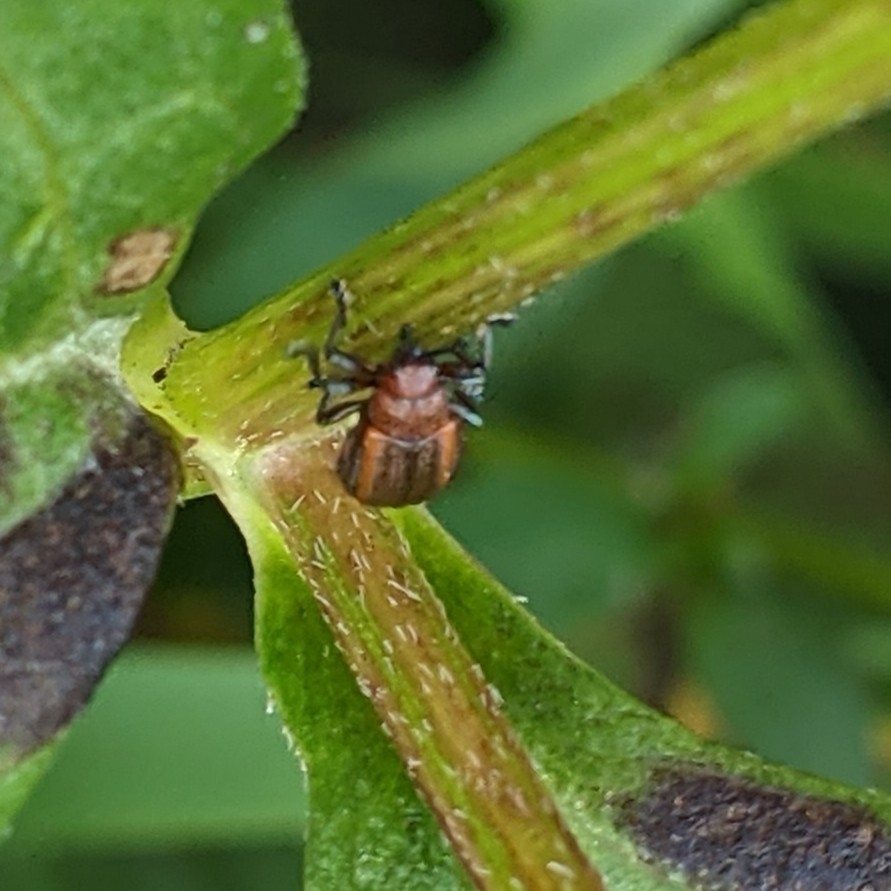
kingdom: Animalia
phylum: Arthropoda
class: Insecta
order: Coleoptera
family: Chrysomelidae
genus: Microrhopala
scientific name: Microrhopala vittata
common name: Goldenrod leaf miner beetle
